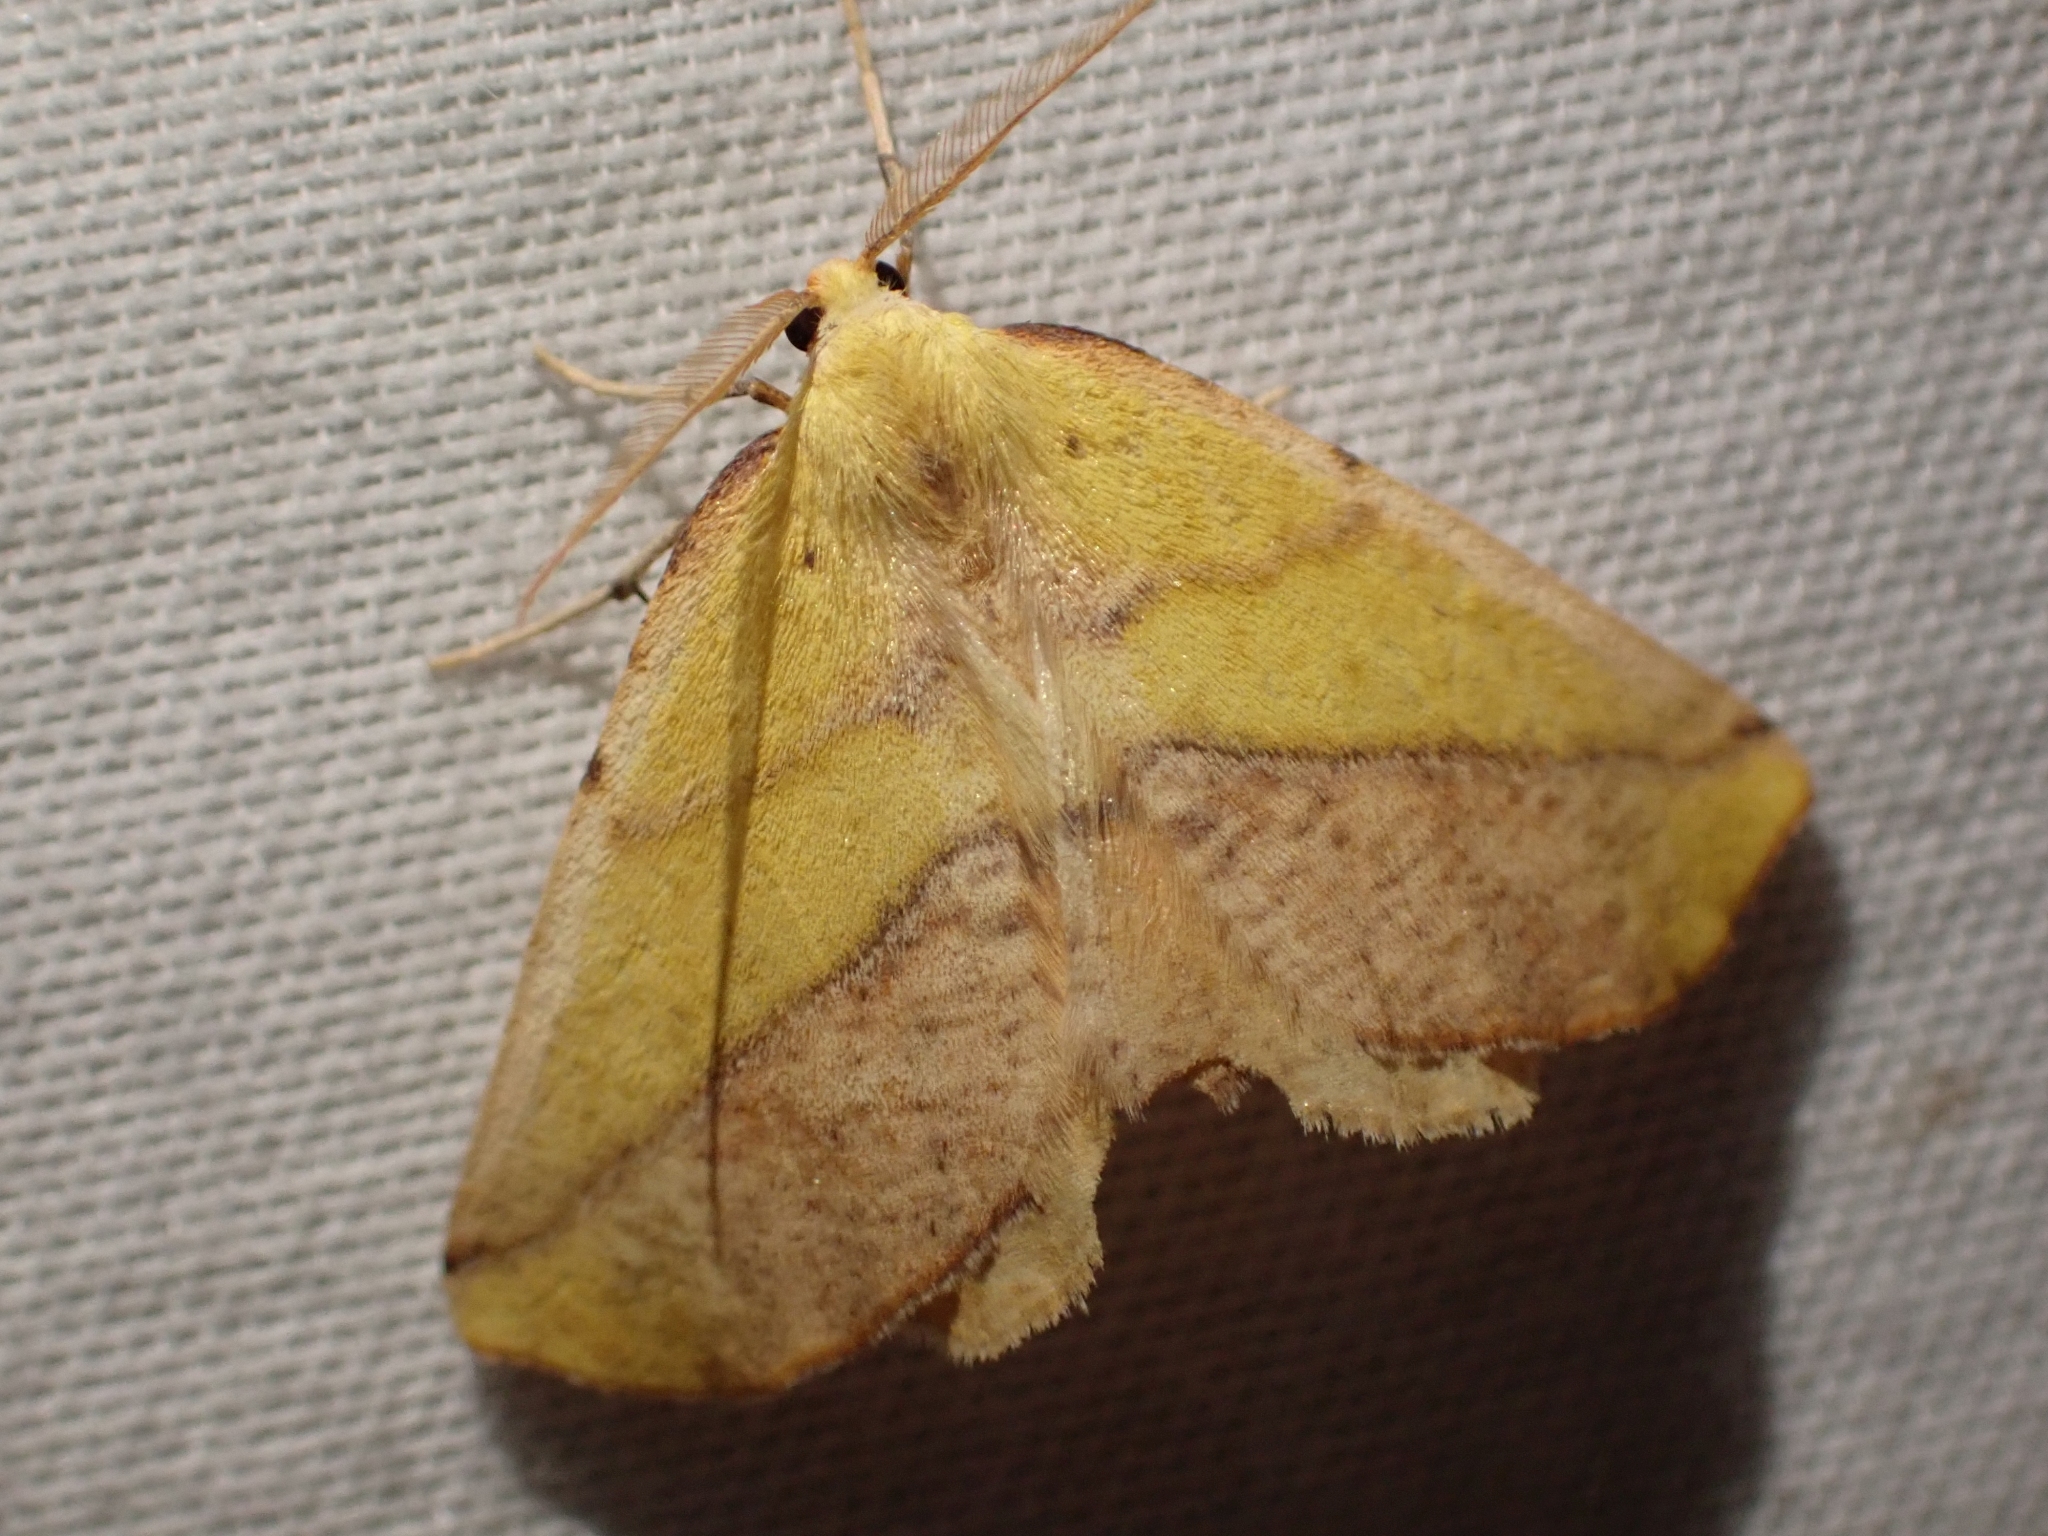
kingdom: Animalia
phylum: Arthropoda
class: Insecta
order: Lepidoptera
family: Geometridae
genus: Sicya
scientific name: Sicya macularia
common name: Sharp-lined yellow
